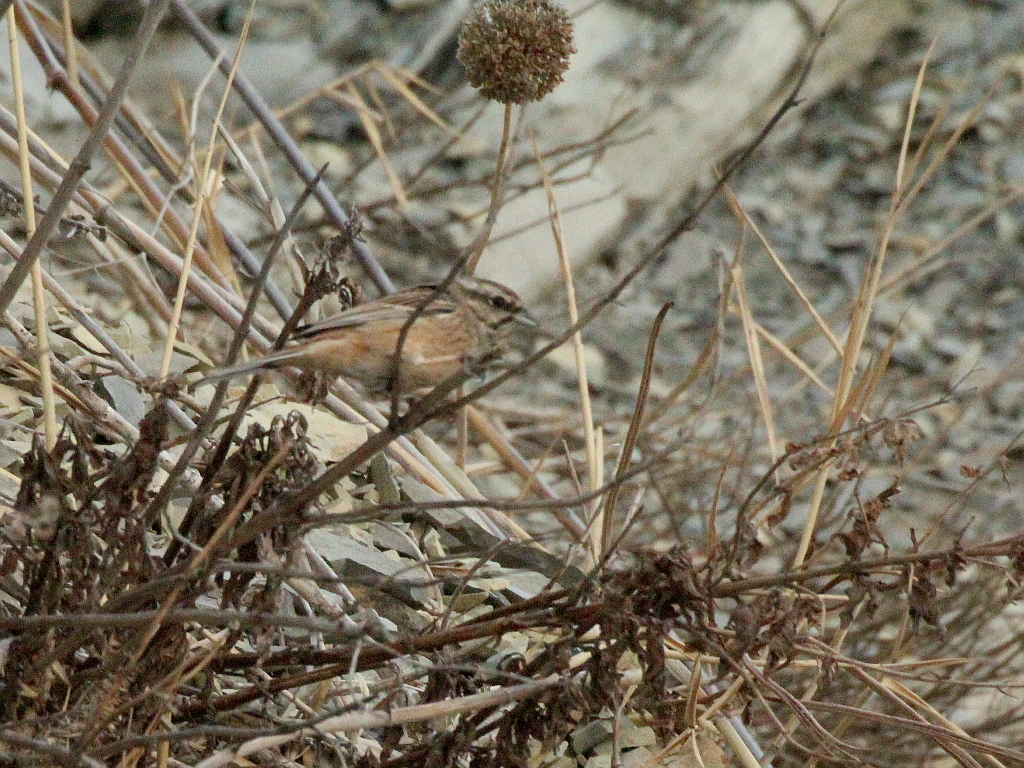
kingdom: Animalia
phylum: Chordata
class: Aves
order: Passeriformes
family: Emberizidae
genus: Emberiza
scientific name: Emberiza cia
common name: Rock bunting
